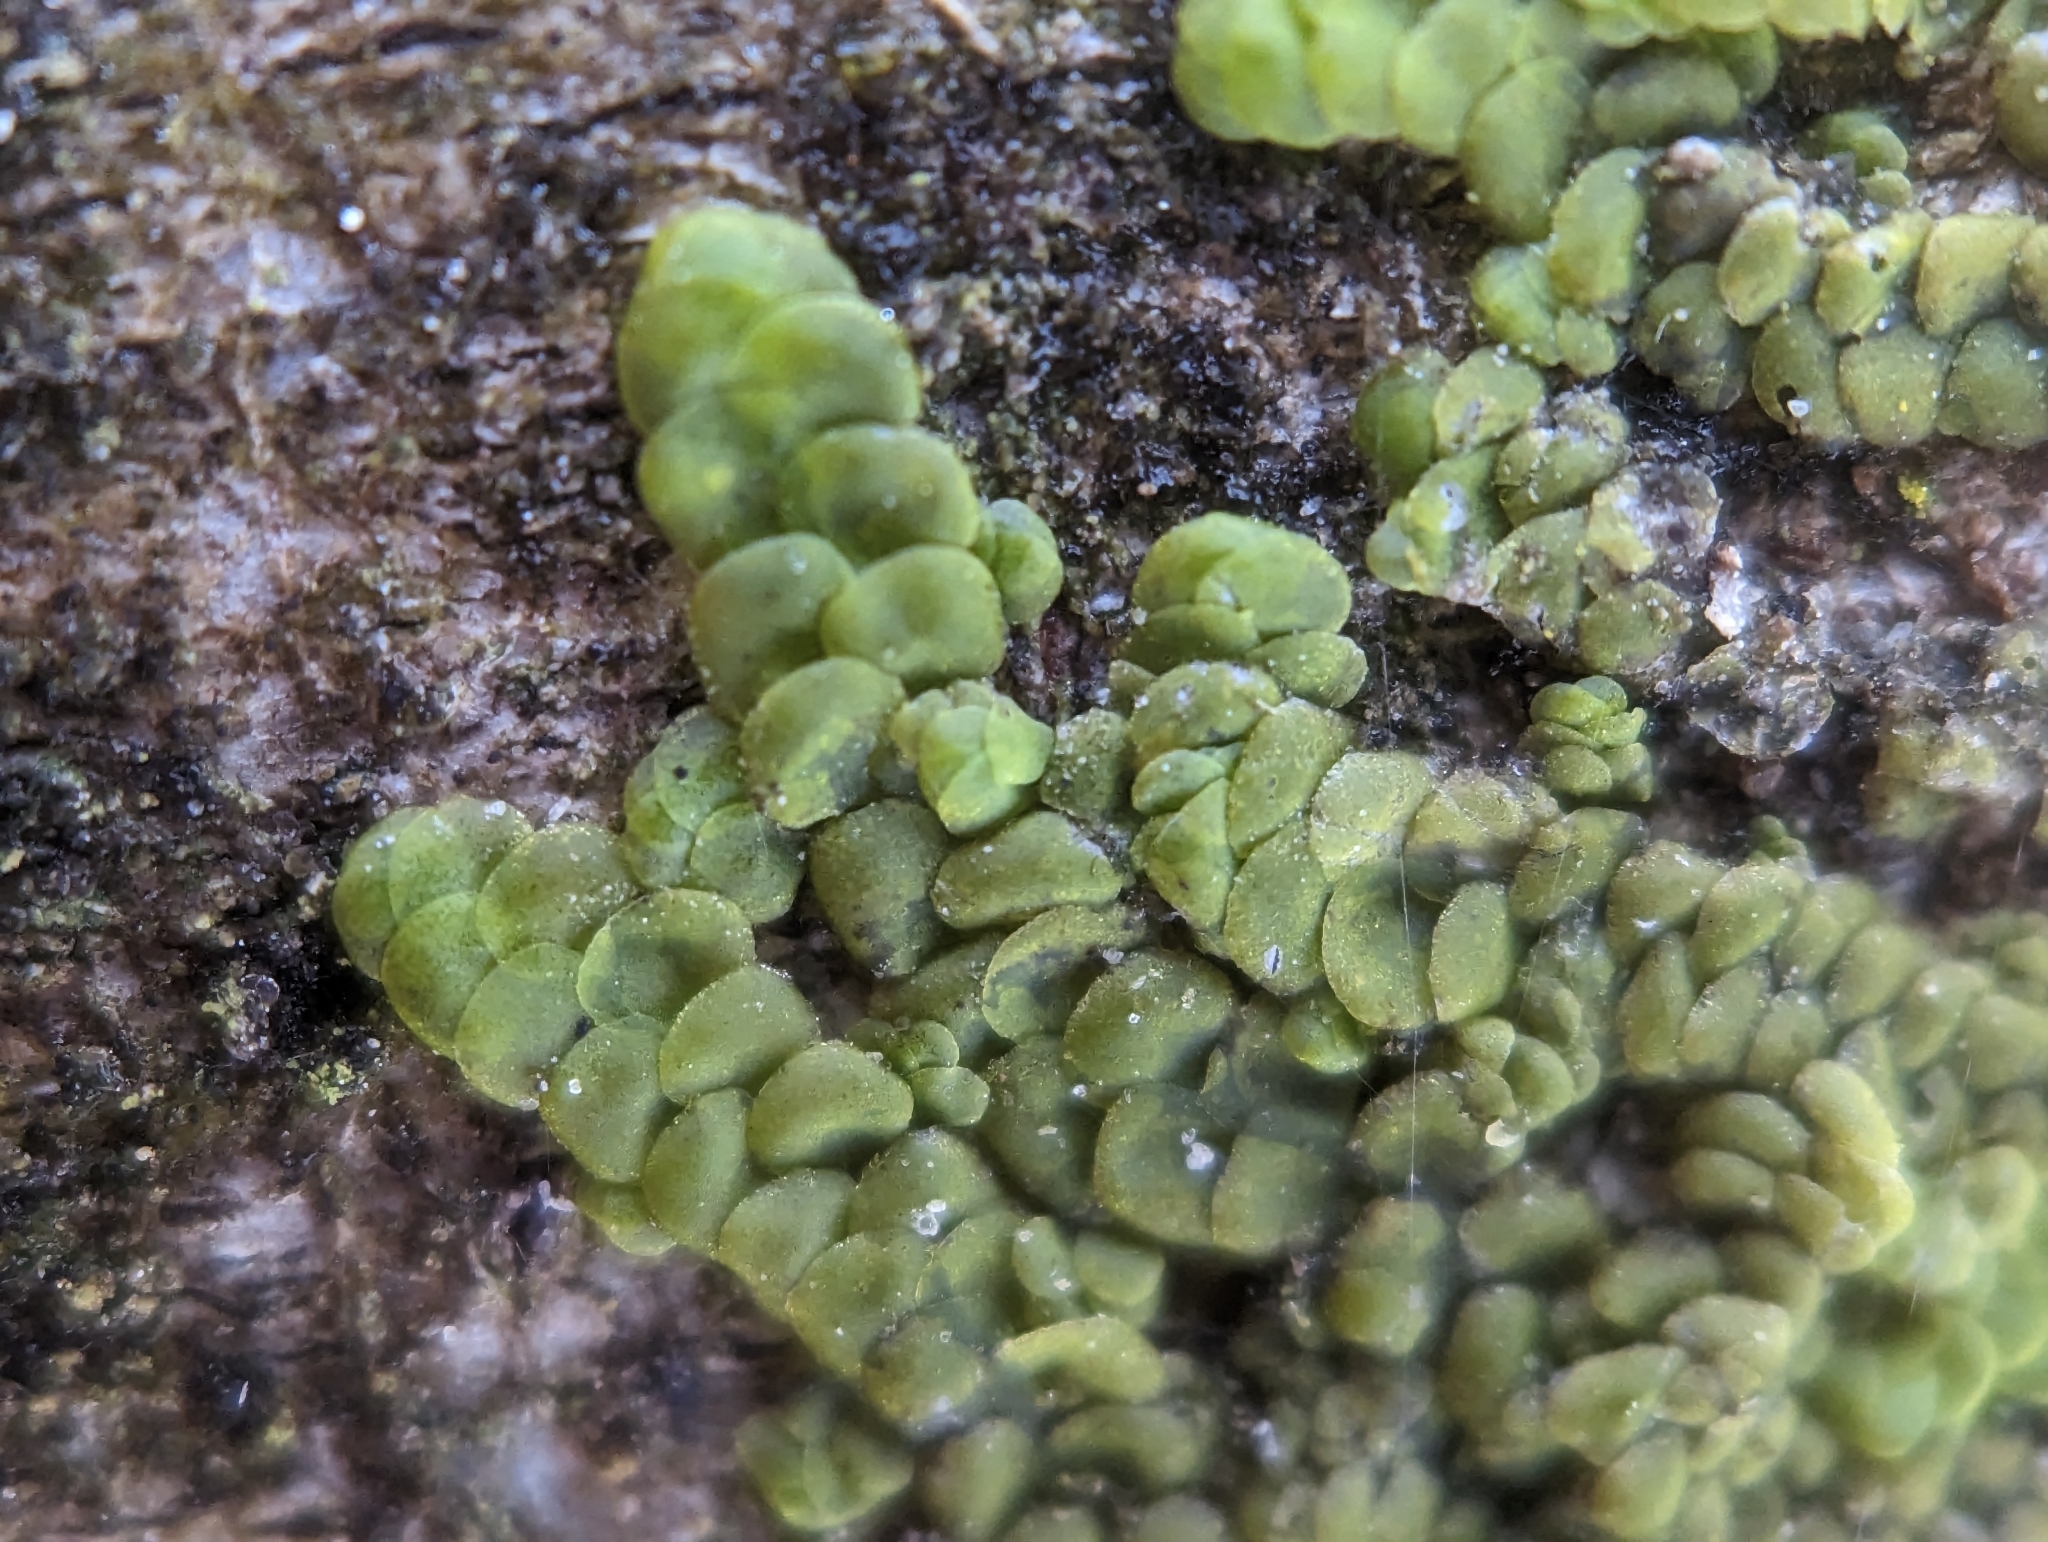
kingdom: Plantae
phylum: Marchantiophyta
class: Jungermanniopsida
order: Porellales
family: Radulaceae
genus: Radula
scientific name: Radula complanata
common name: Flat-leaved scalewort
